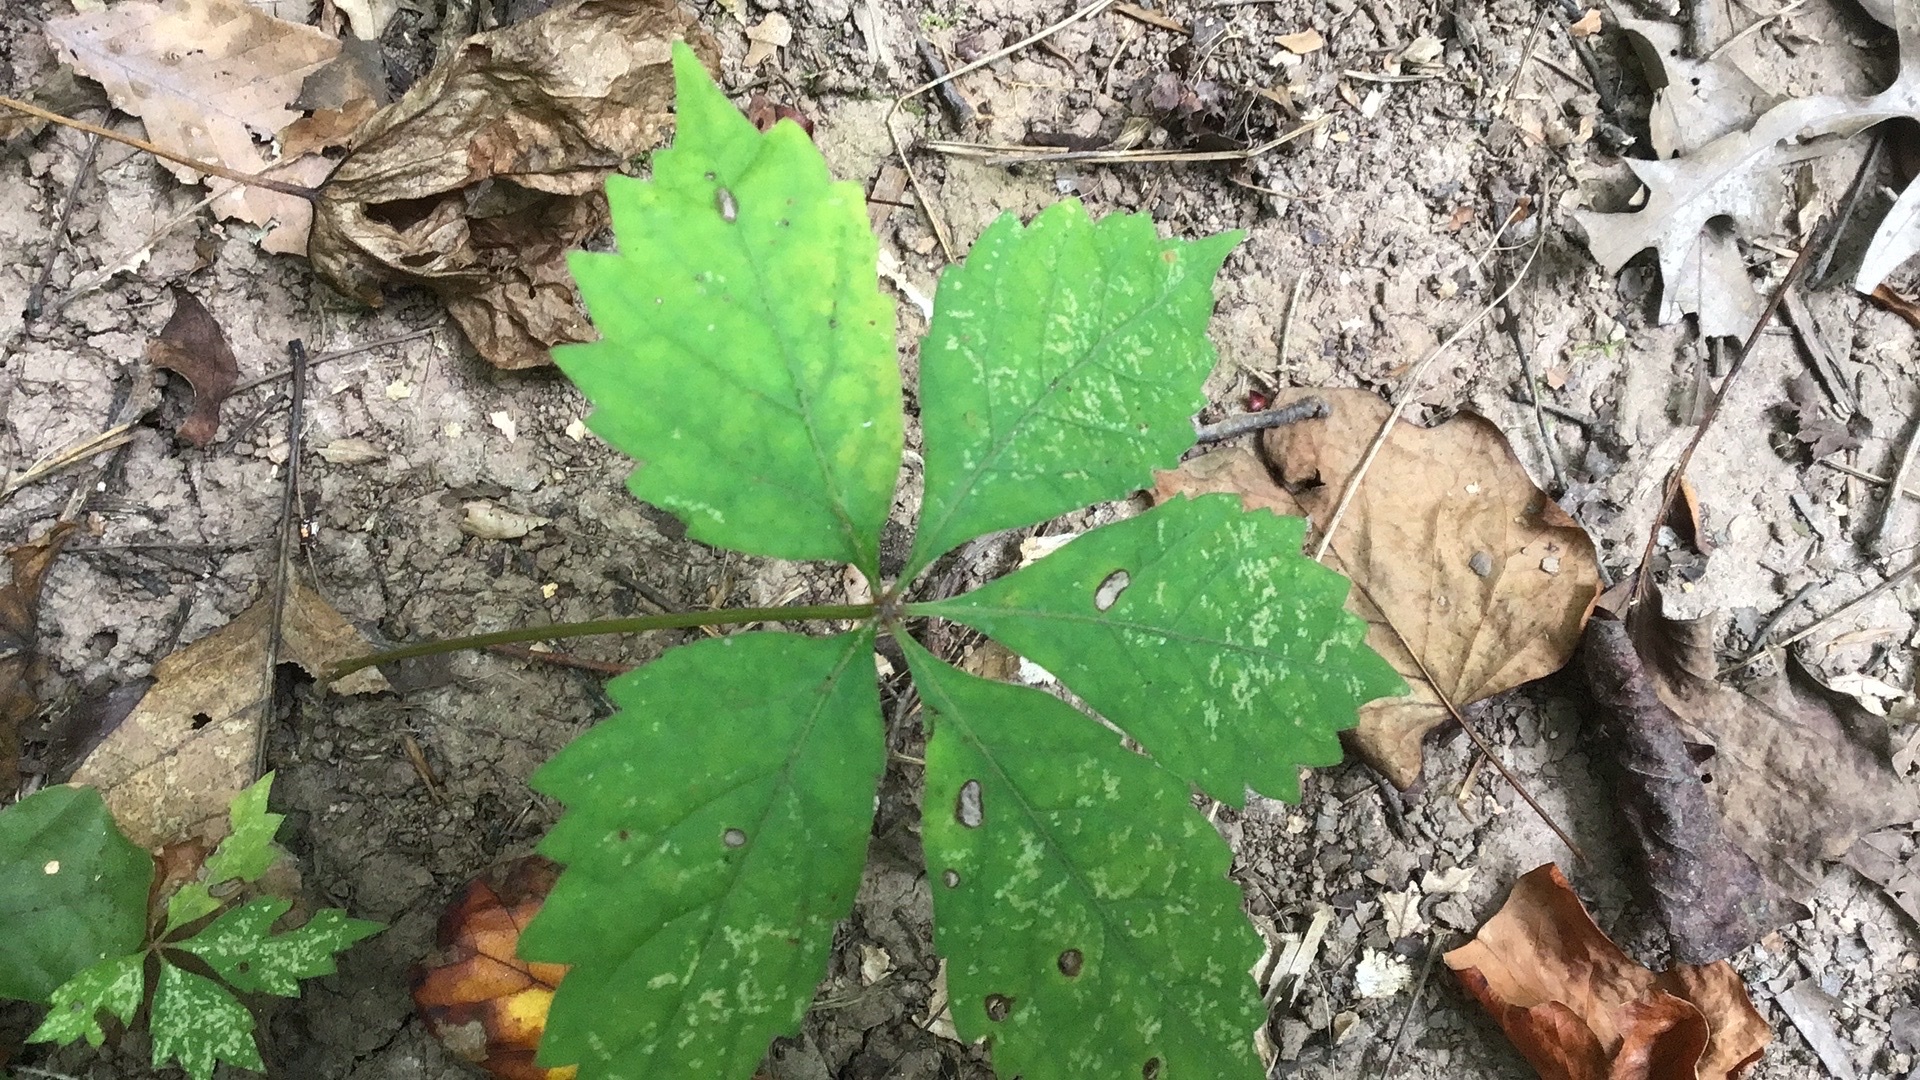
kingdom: Plantae
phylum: Tracheophyta
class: Magnoliopsida
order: Vitales
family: Vitaceae
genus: Parthenocissus
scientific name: Parthenocissus quinquefolia
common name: Virginia-creeper
